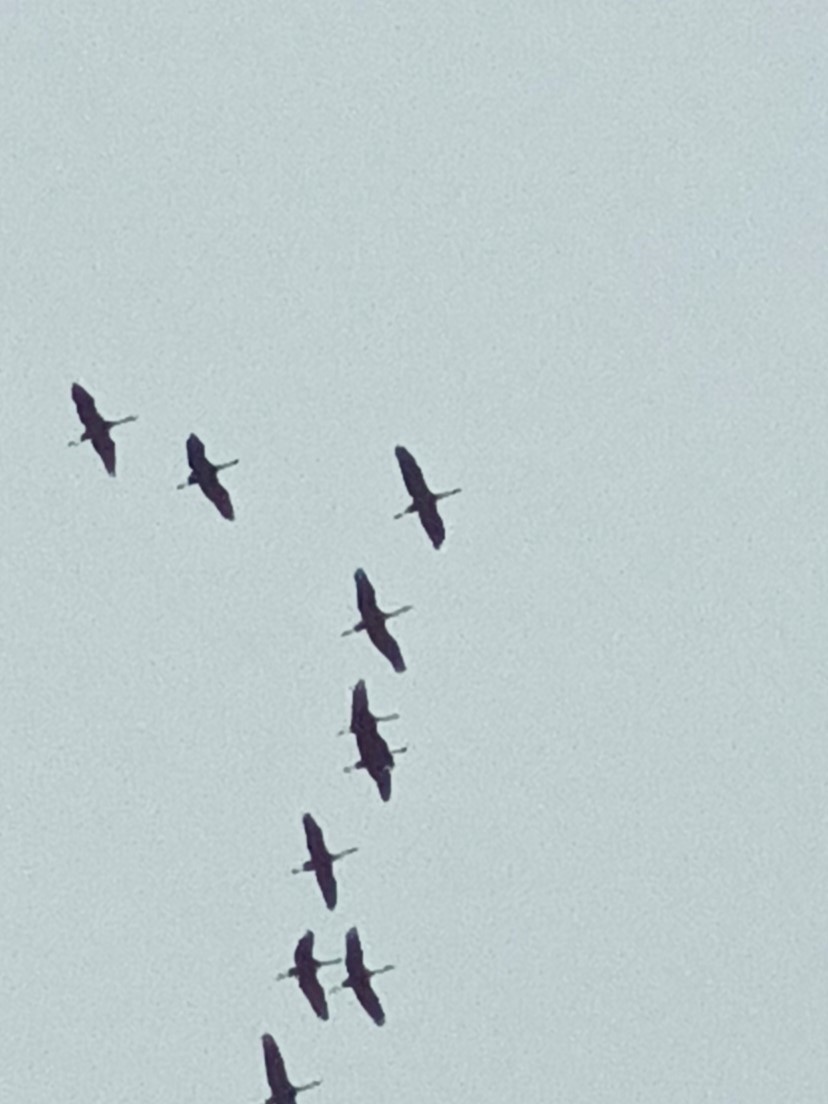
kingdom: Animalia
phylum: Chordata
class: Aves
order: Gruiformes
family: Gruidae
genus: Grus
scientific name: Grus grus
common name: Common crane
